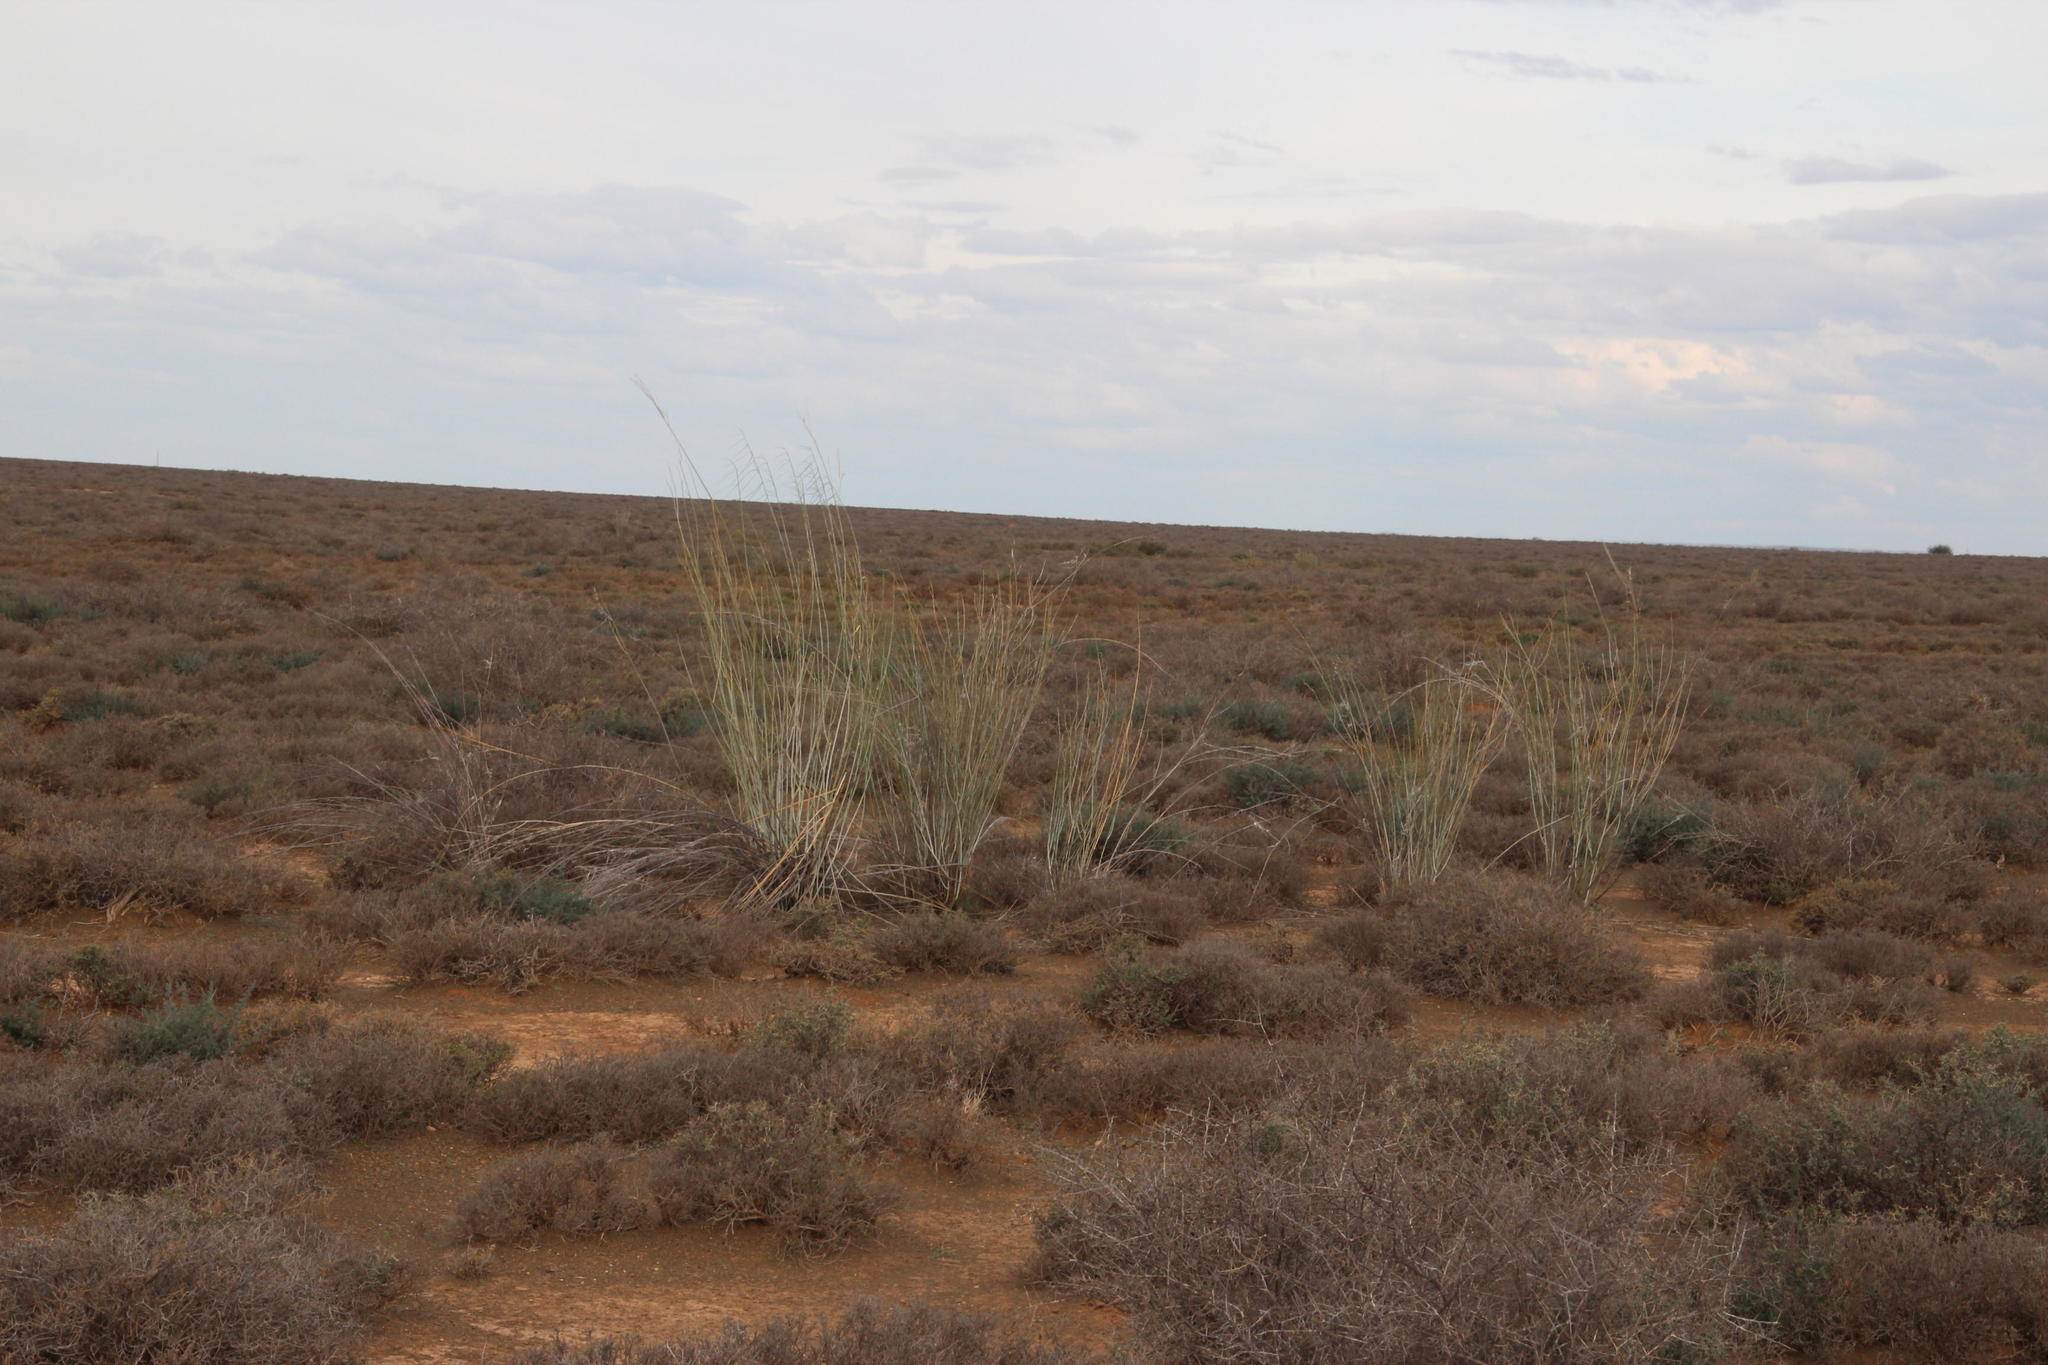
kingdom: Plantae
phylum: Tracheophyta
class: Magnoliopsida
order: Gentianales
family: Apocynaceae
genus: Gomphocarpus
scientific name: Gomphocarpus filiformis
